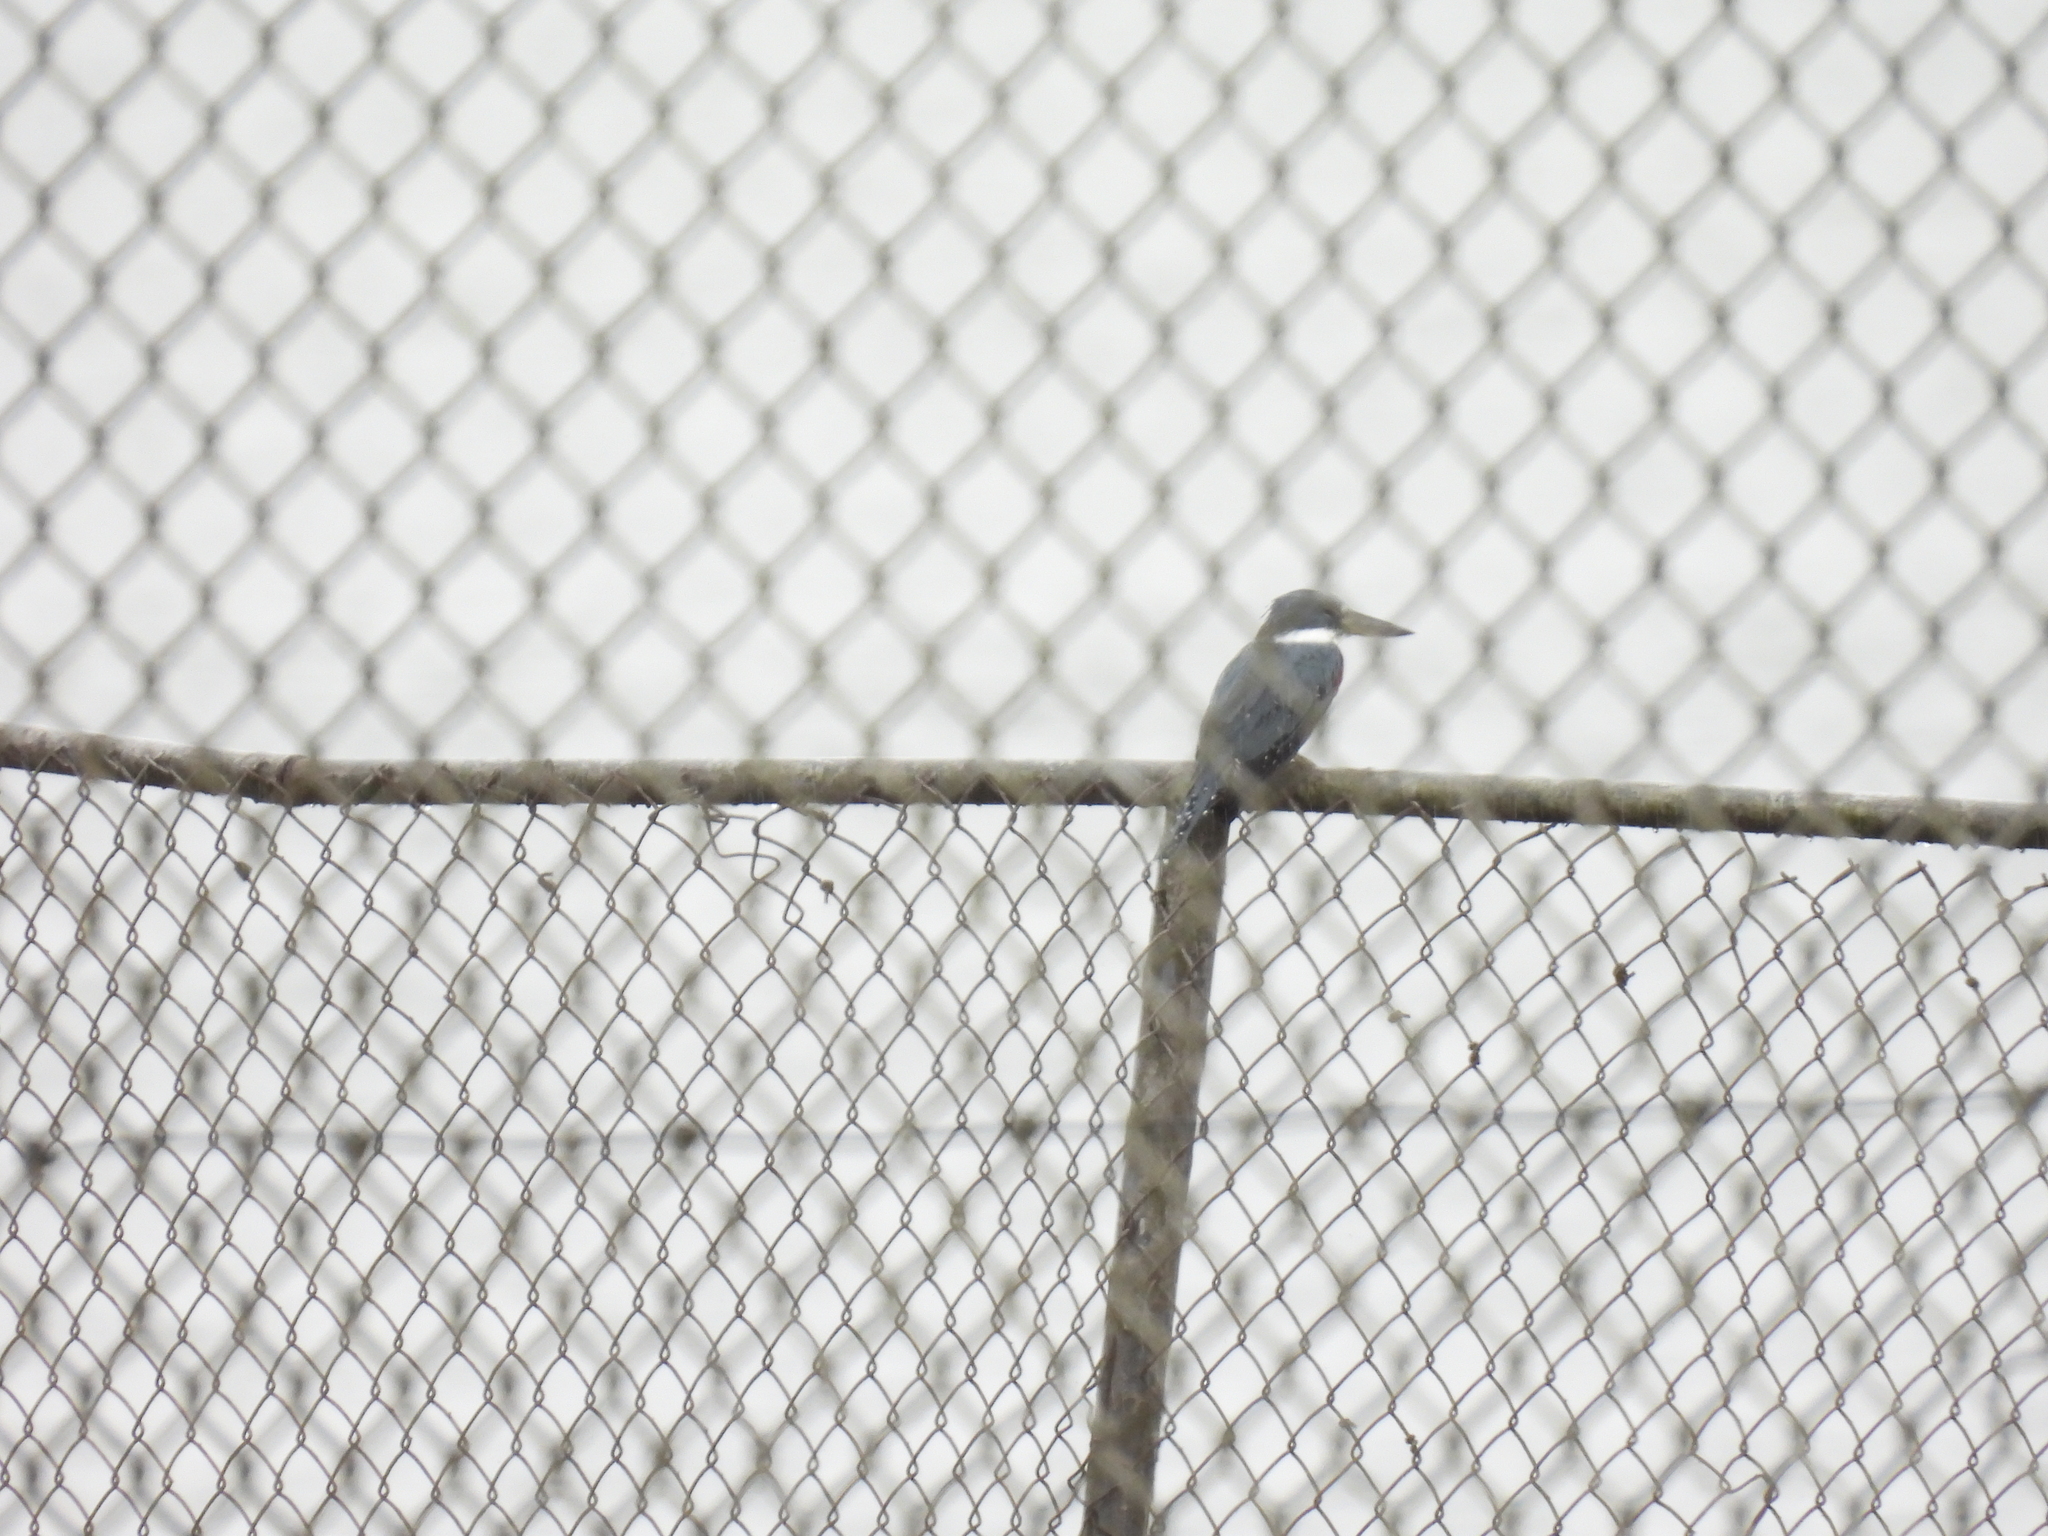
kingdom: Animalia
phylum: Chordata
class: Aves
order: Coraciiformes
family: Alcedinidae
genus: Megaceryle
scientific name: Megaceryle torquata
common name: Ringed kingfisher
